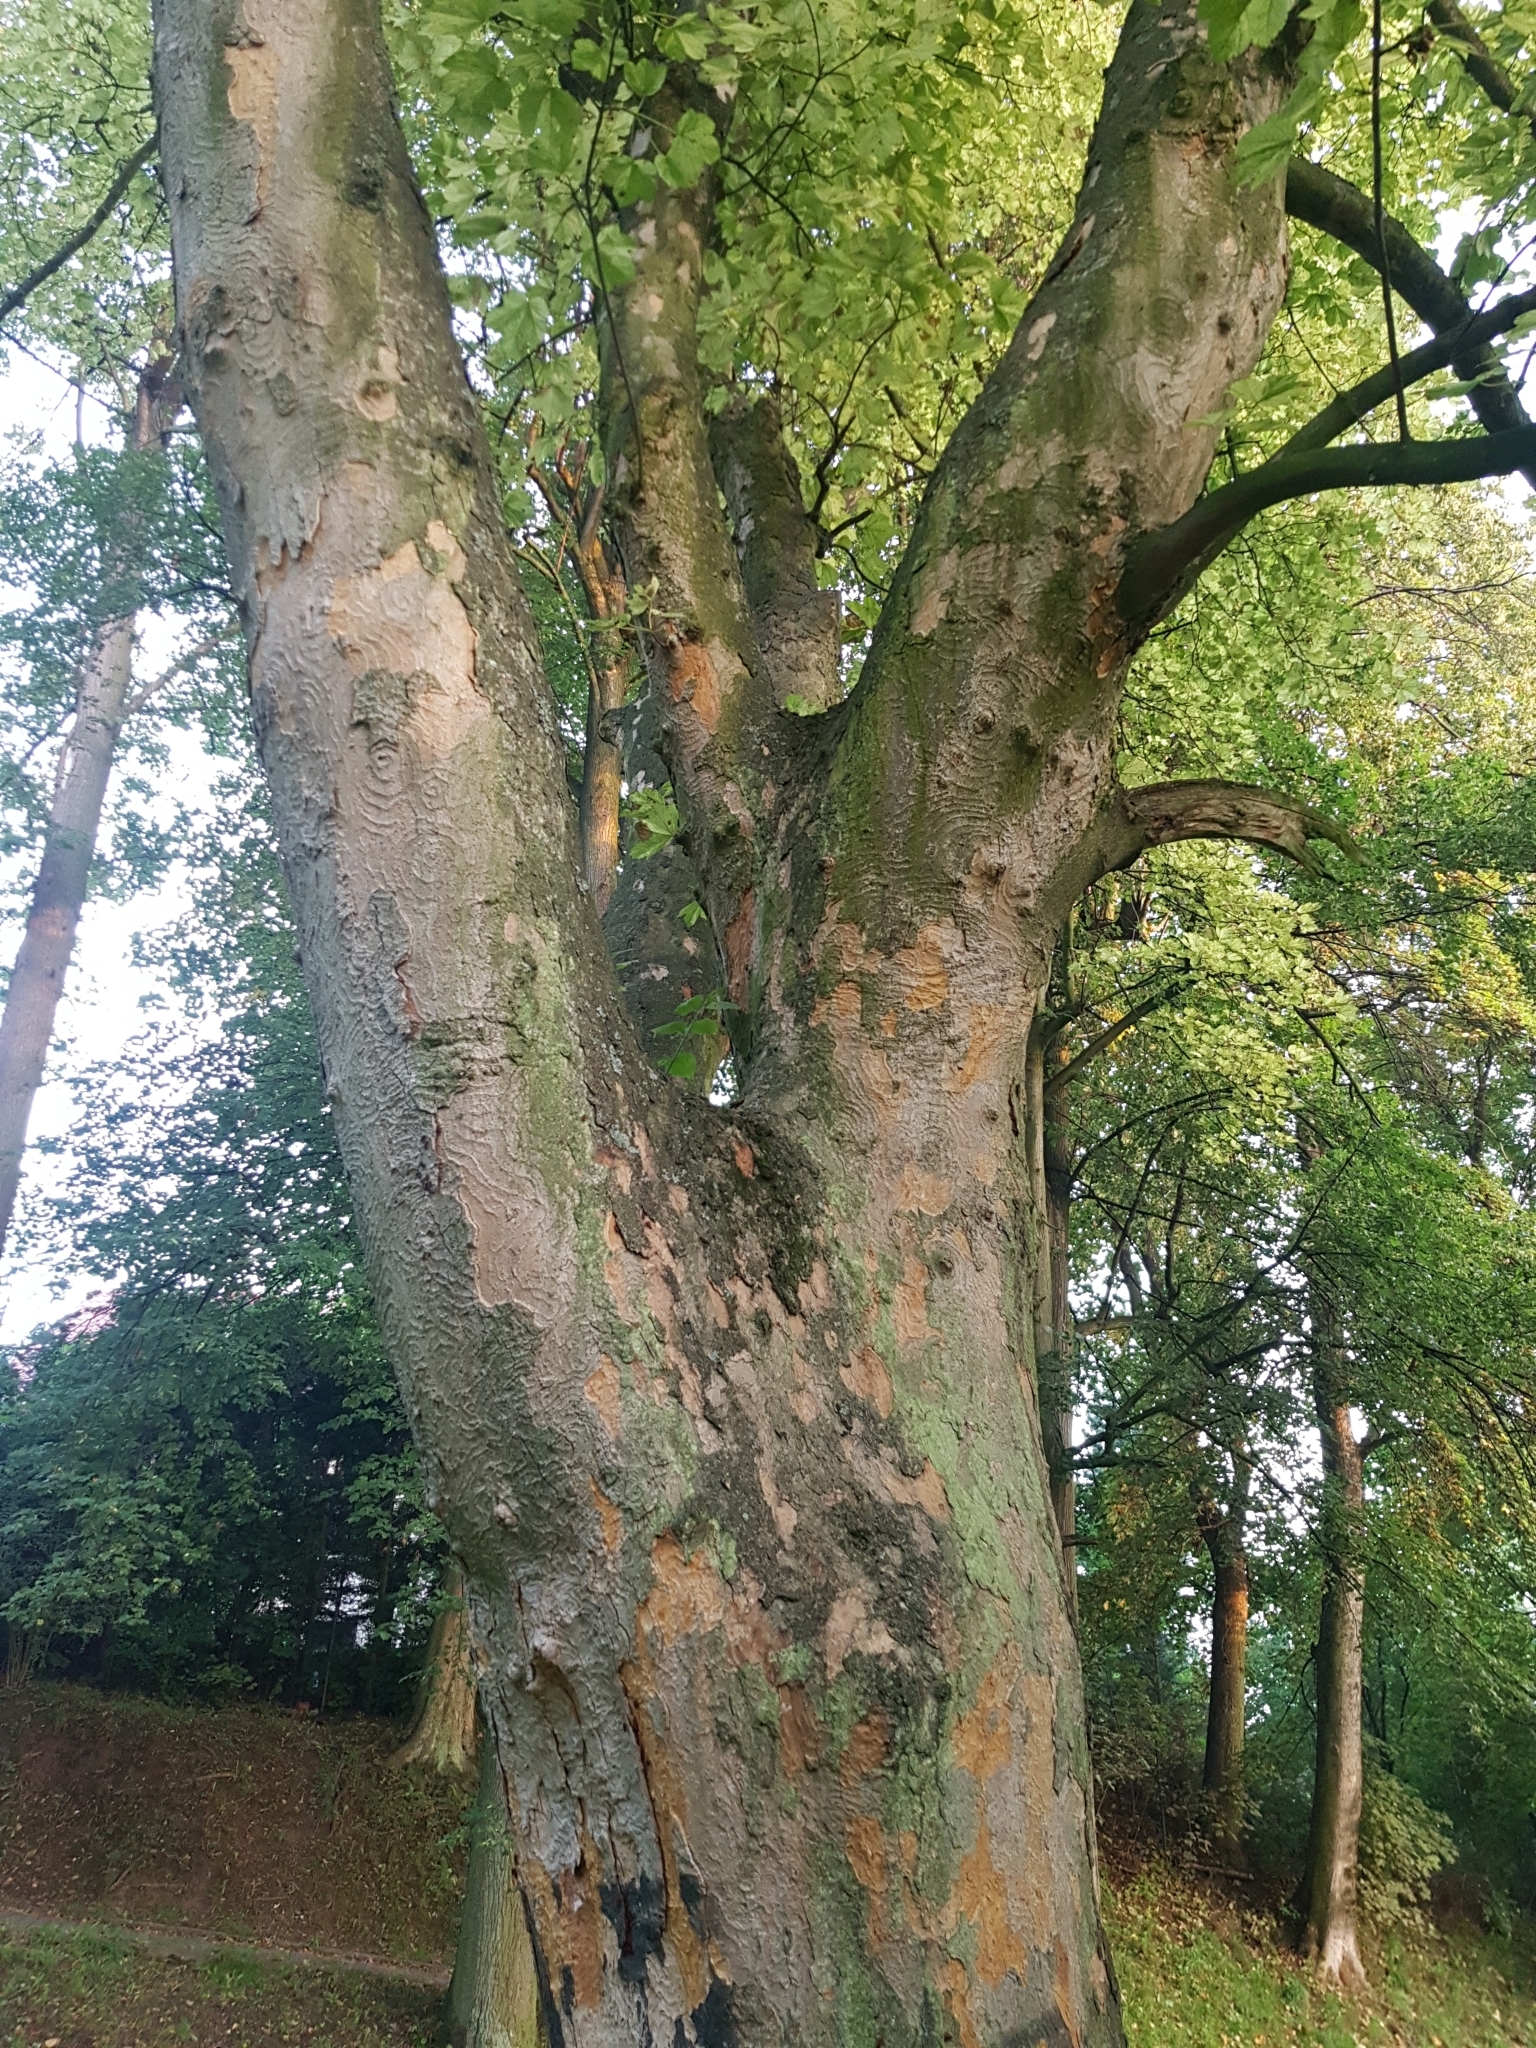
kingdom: Plantae
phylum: Tracheophyta
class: Magnoliopsida
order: Sapindales
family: Sapindaceae
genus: Acer
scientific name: Acer pseudoplatanus
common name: Sycamore
